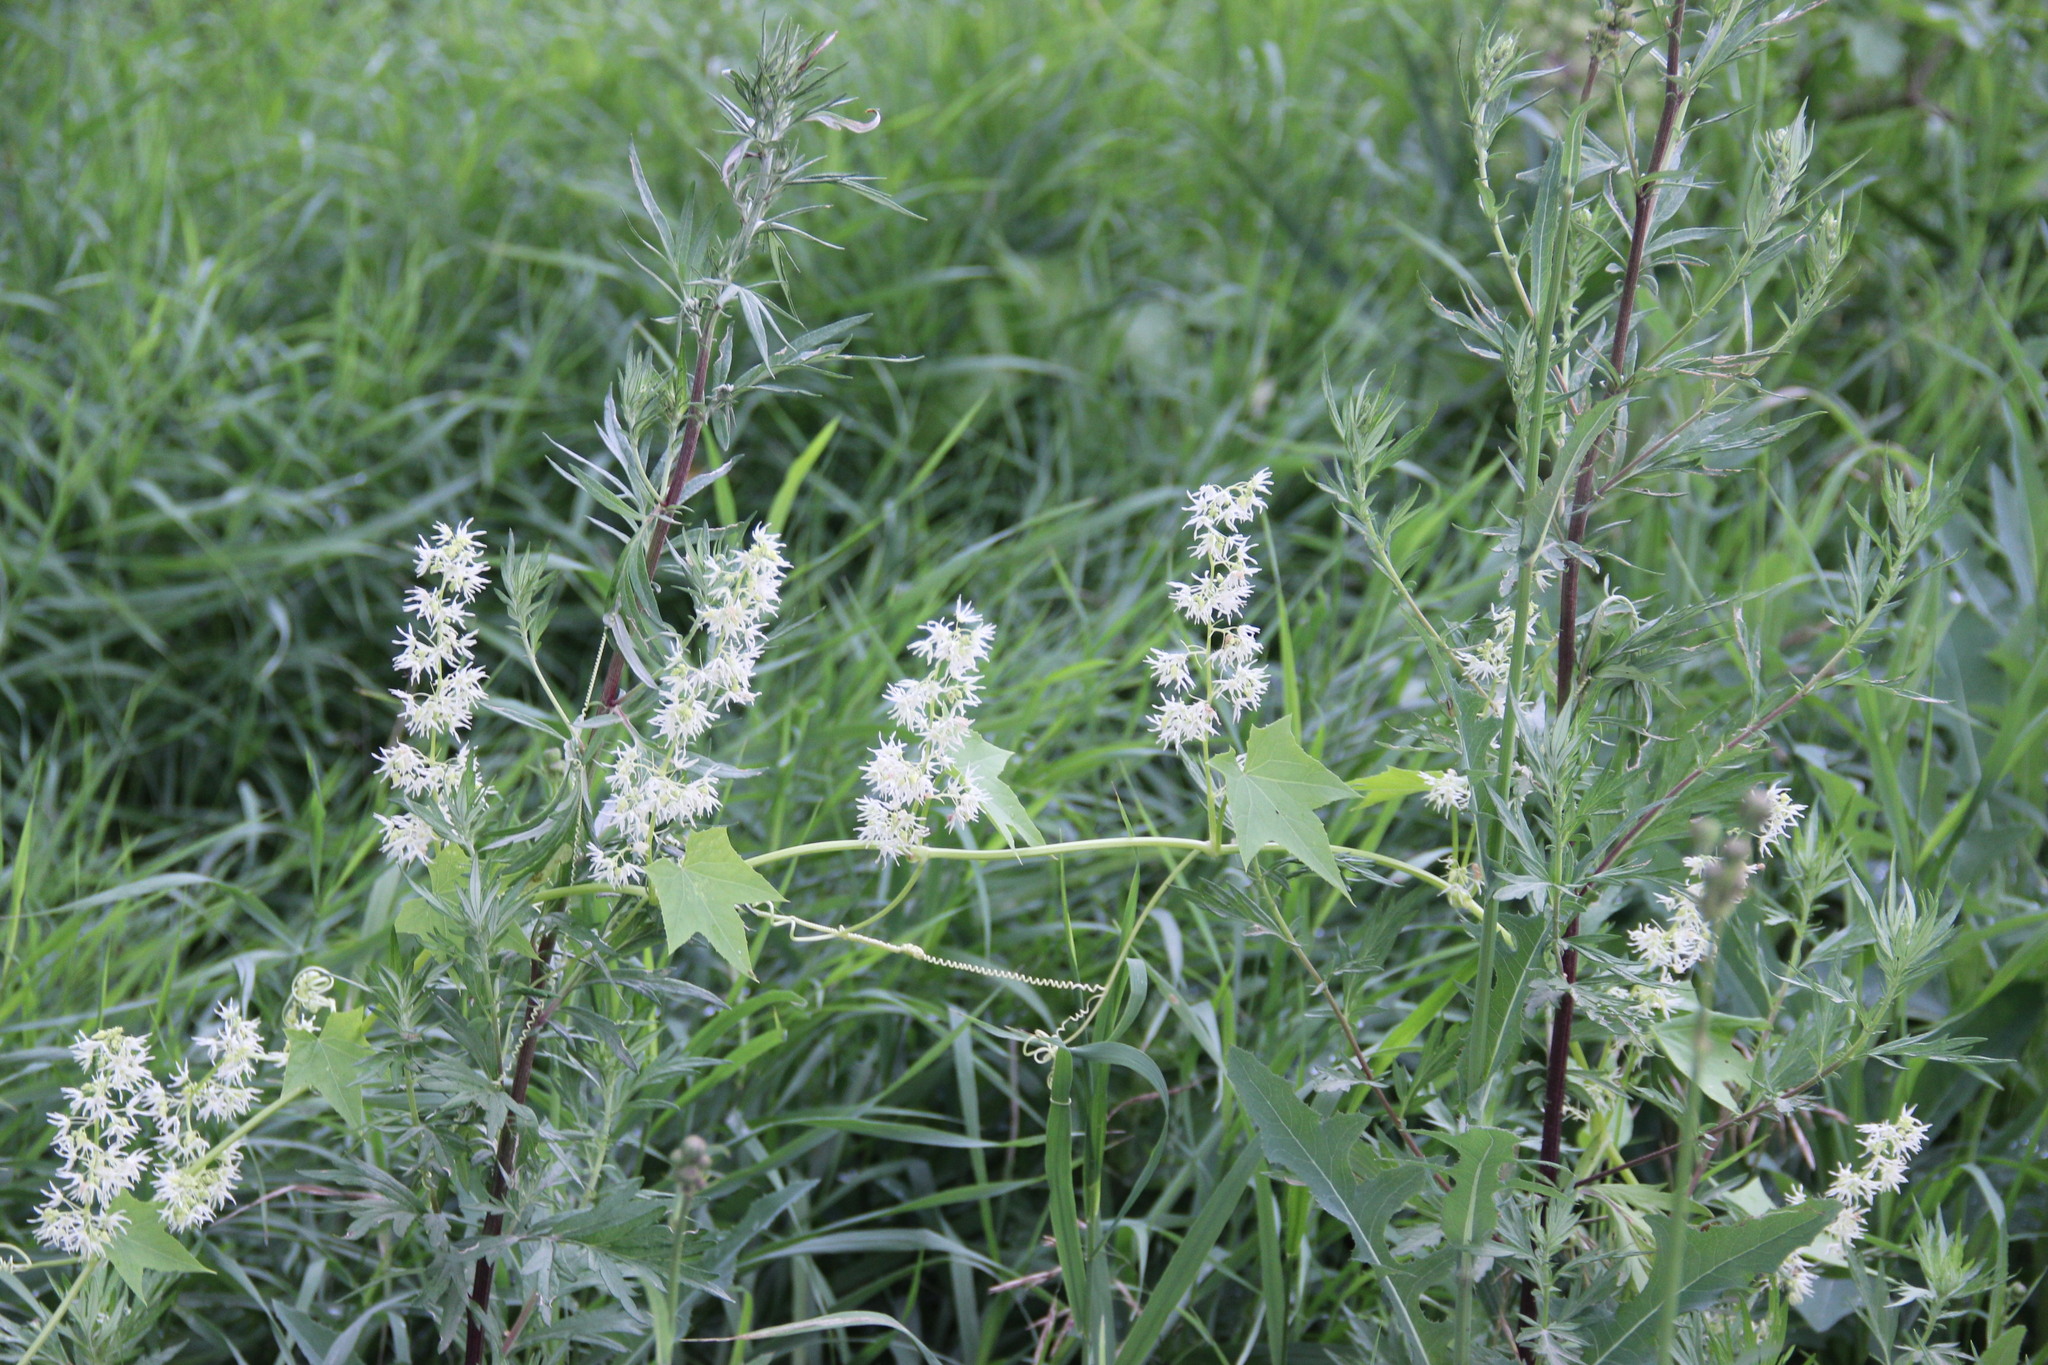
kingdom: Plantae
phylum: Tracheophyta
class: Magnoliopsida
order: Cucurbitales
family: Cucurbitaceae
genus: Echinocystis
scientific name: Echinocystis lobata
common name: Wild cucumber
